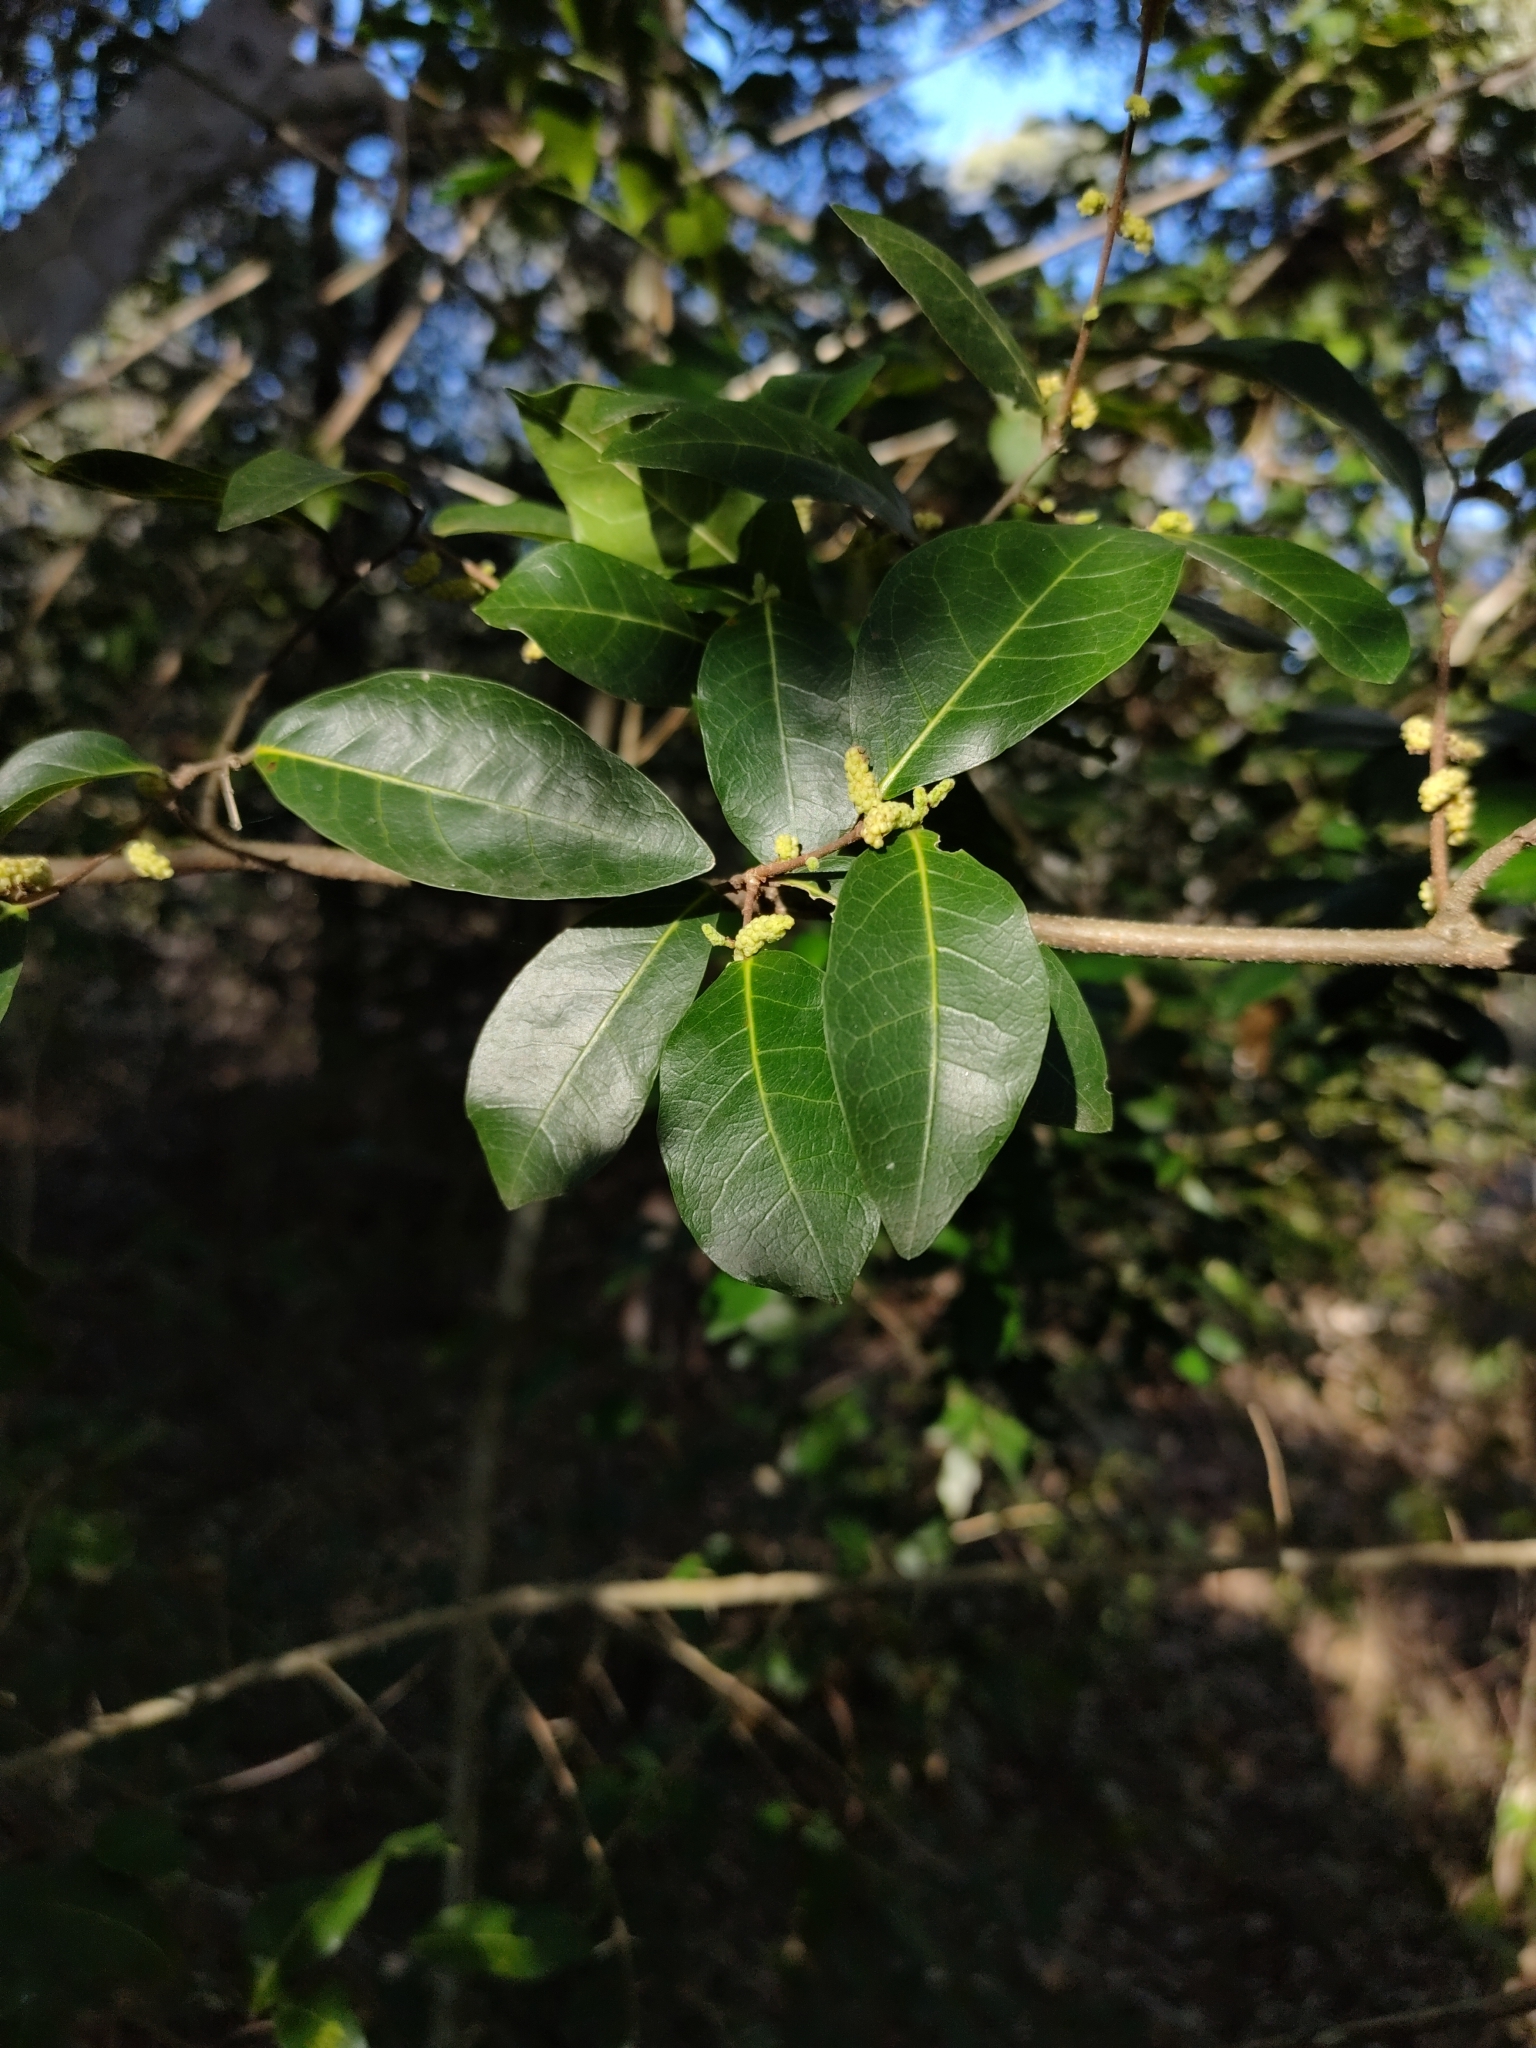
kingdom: Plantae
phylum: Tracheophyta
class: Magnoliopsida
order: Rosales
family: Moraceae
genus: Malaisia
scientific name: Malaisia scandens
